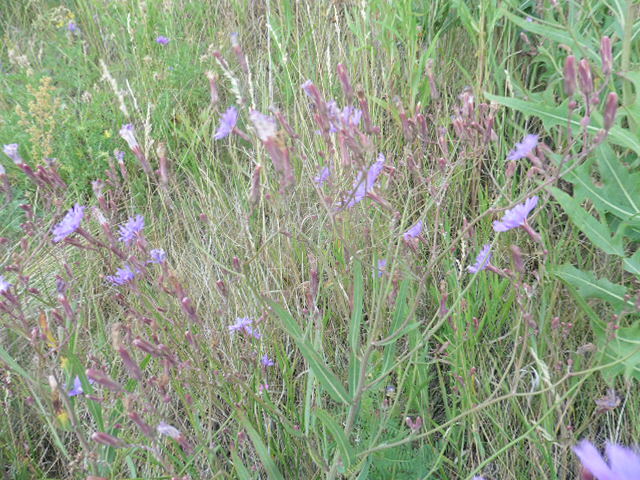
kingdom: Plantae
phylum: Tracheophyta
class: Magnoliopsida
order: Asterales
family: Asteraceae
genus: Lactuca
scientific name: Lactuca tatarica
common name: Blue lettuce
